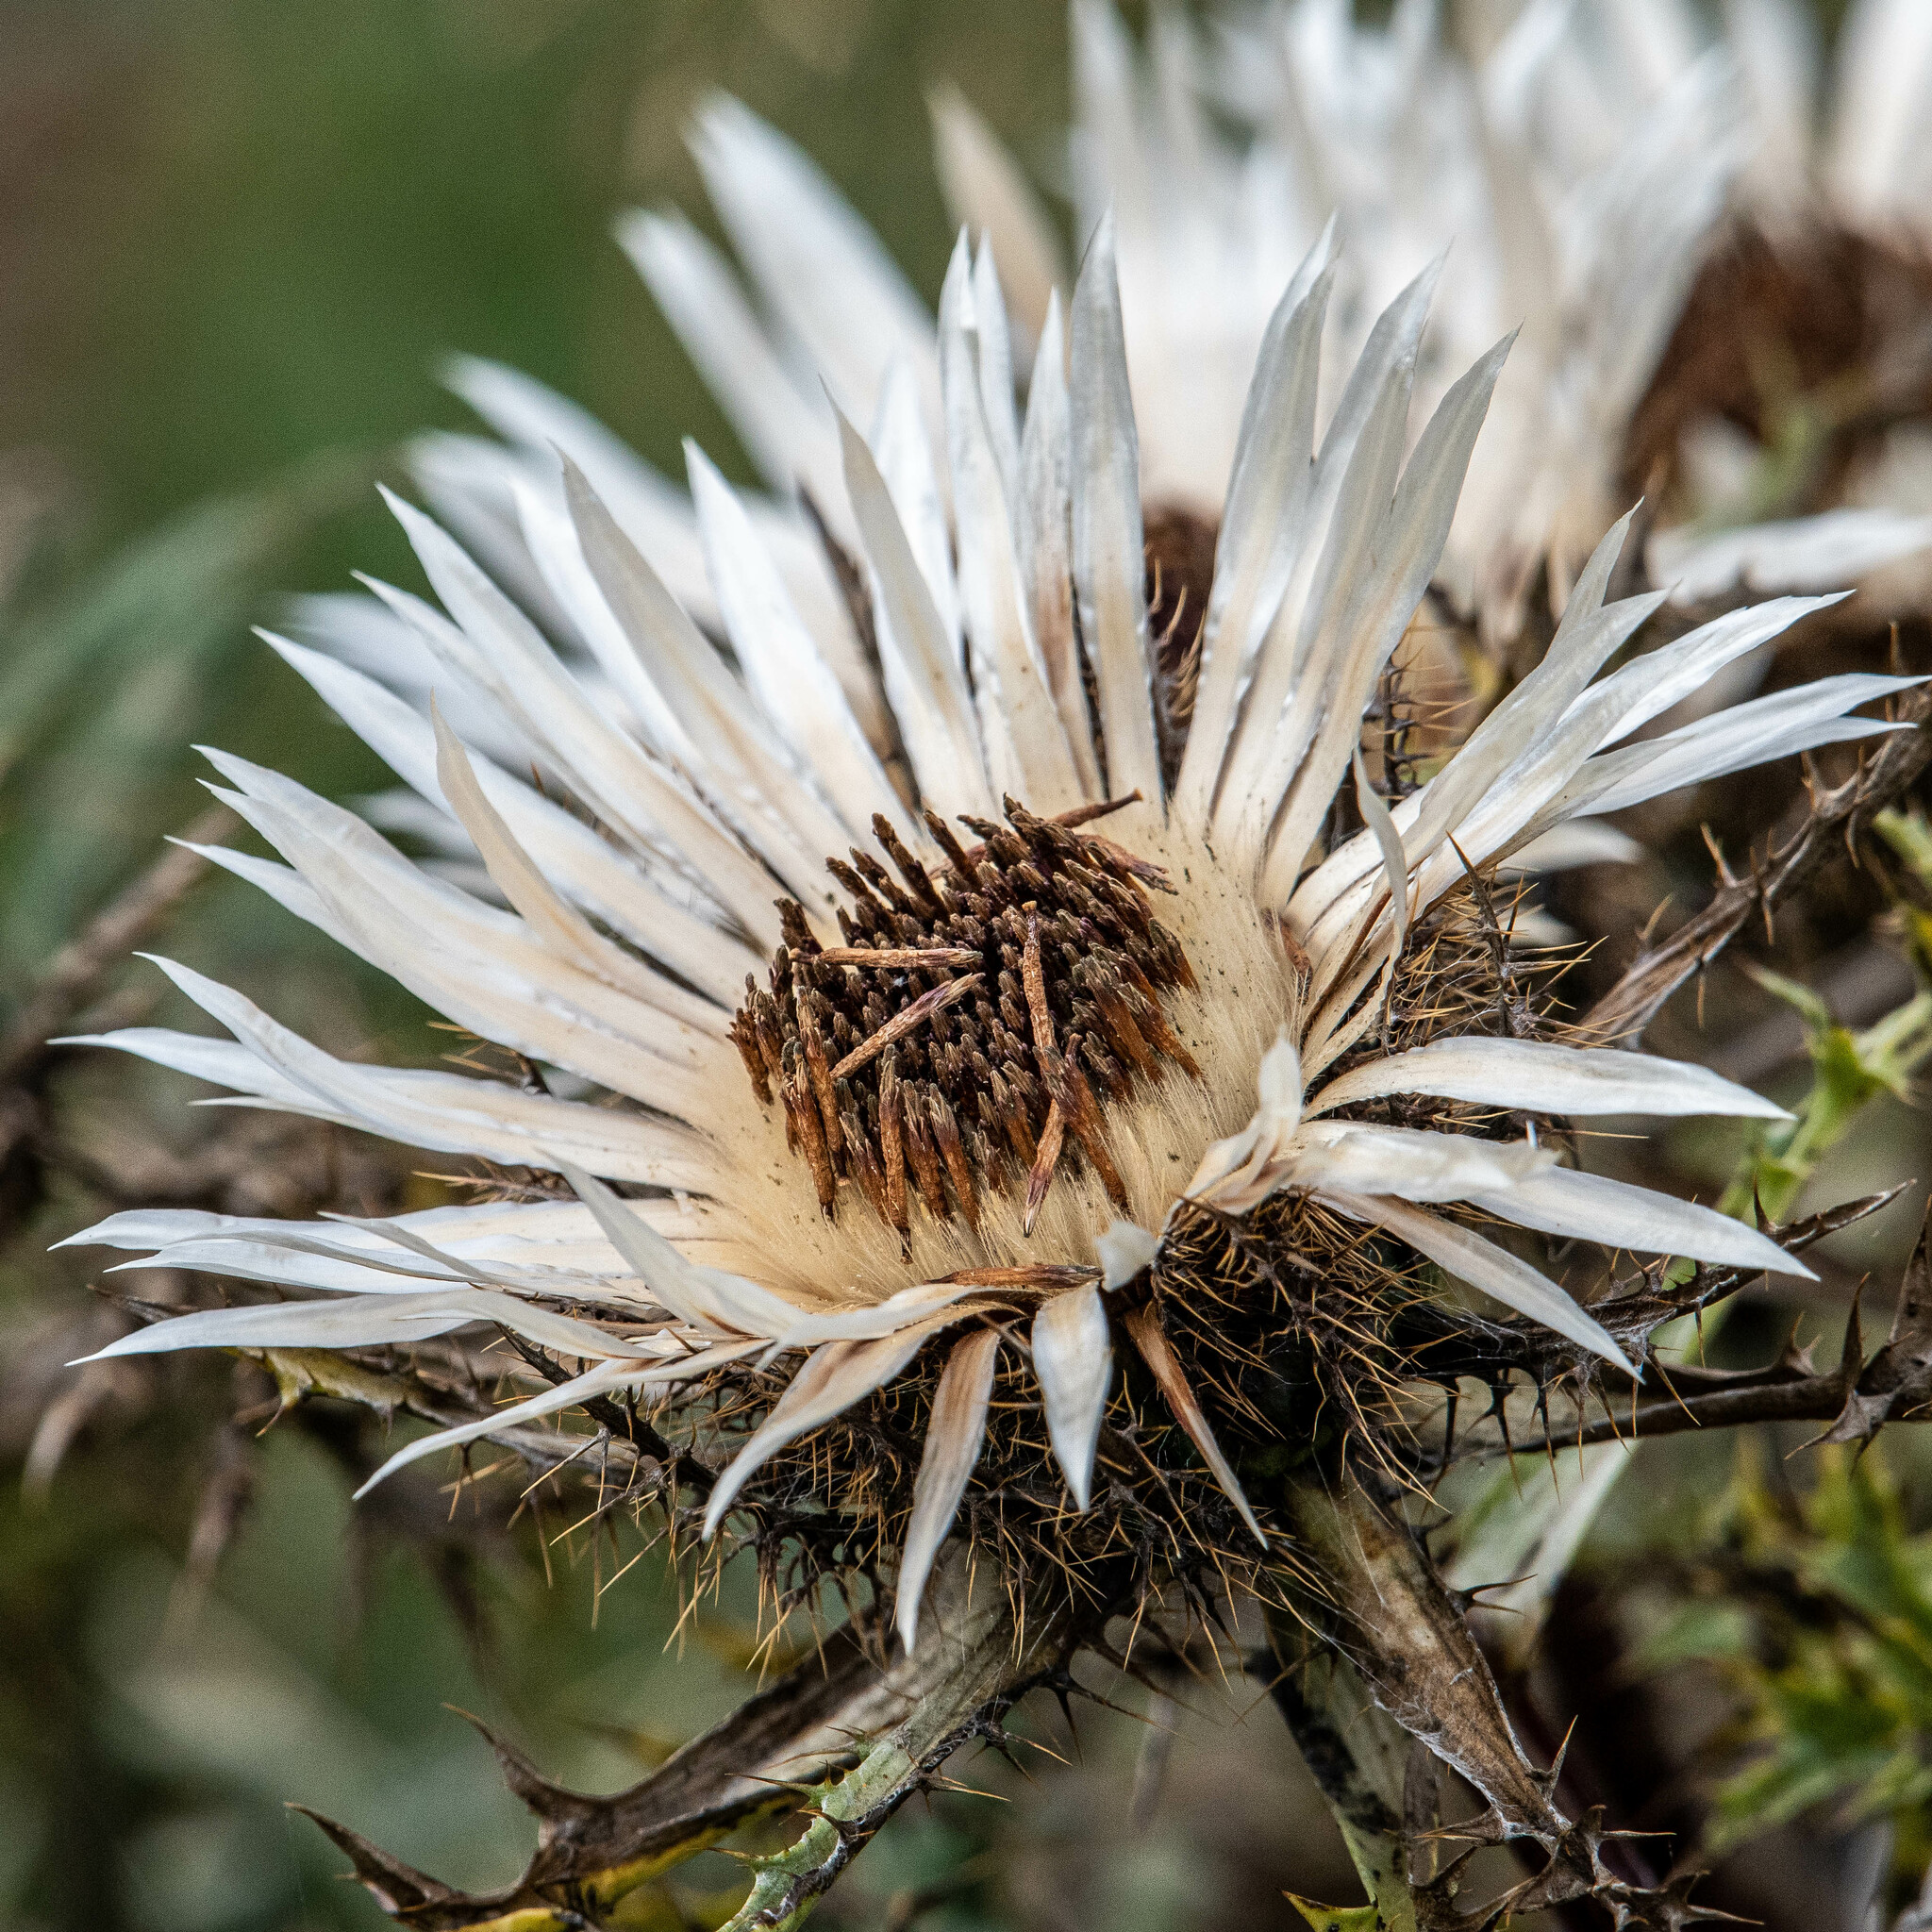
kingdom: Plantae
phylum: Tracheophyta
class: Magnoliopsida
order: Asterales
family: Asteraceae
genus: Carlina
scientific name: Carlina acaulis
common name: Stemless carline thistle
